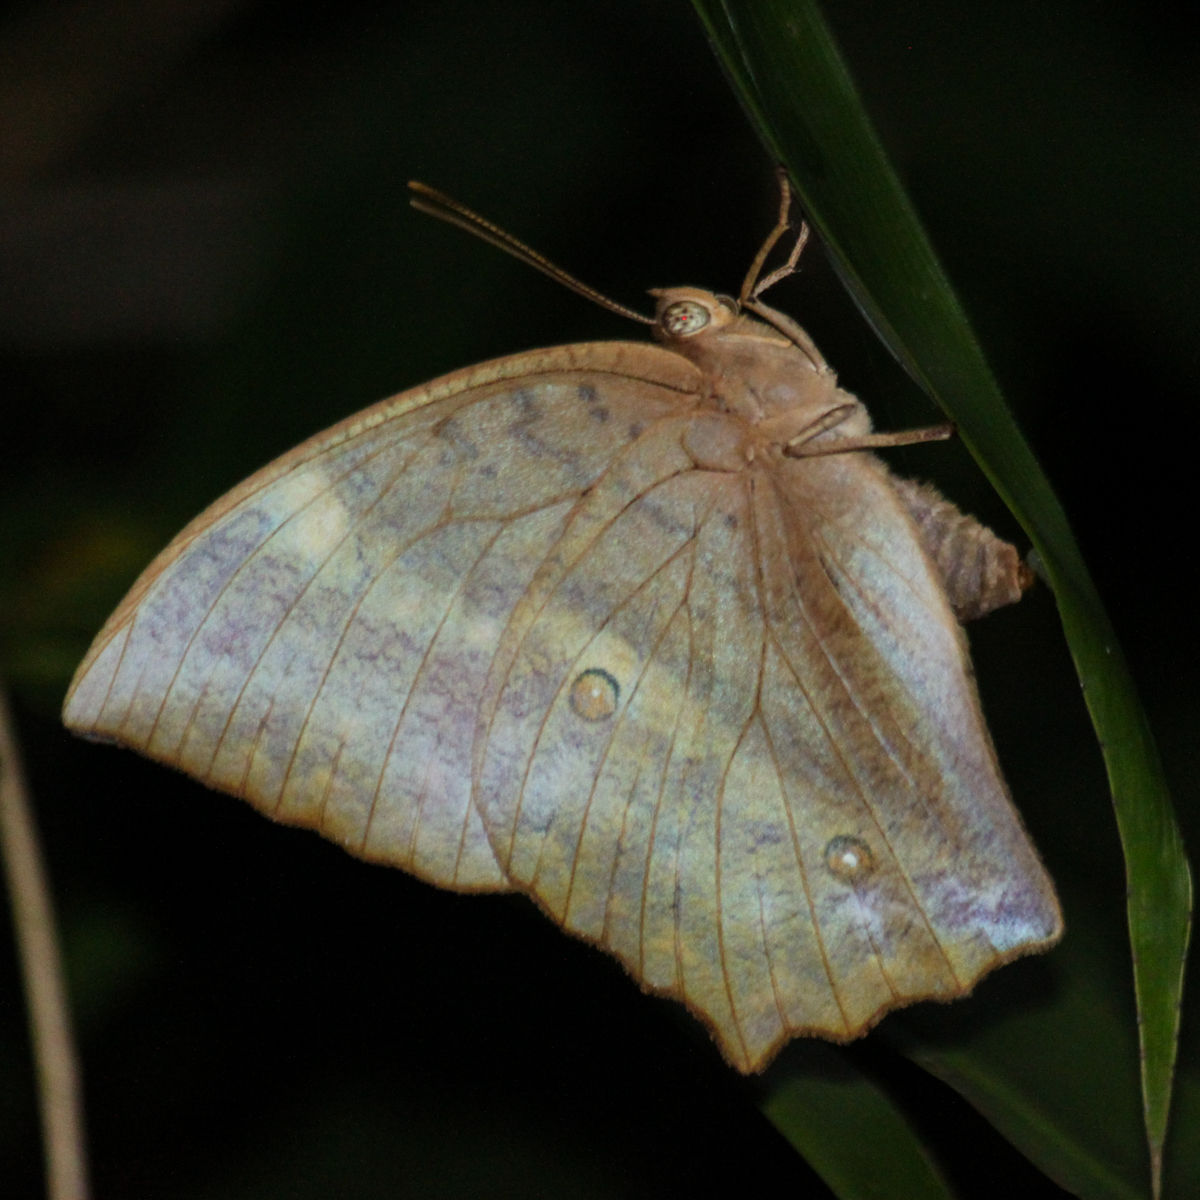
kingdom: Animalia
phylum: Arthropoda
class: Insecta
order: Lepidoptera
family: Nymphalidae
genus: Discophora
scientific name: Discophora sondaica
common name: Common duffer
